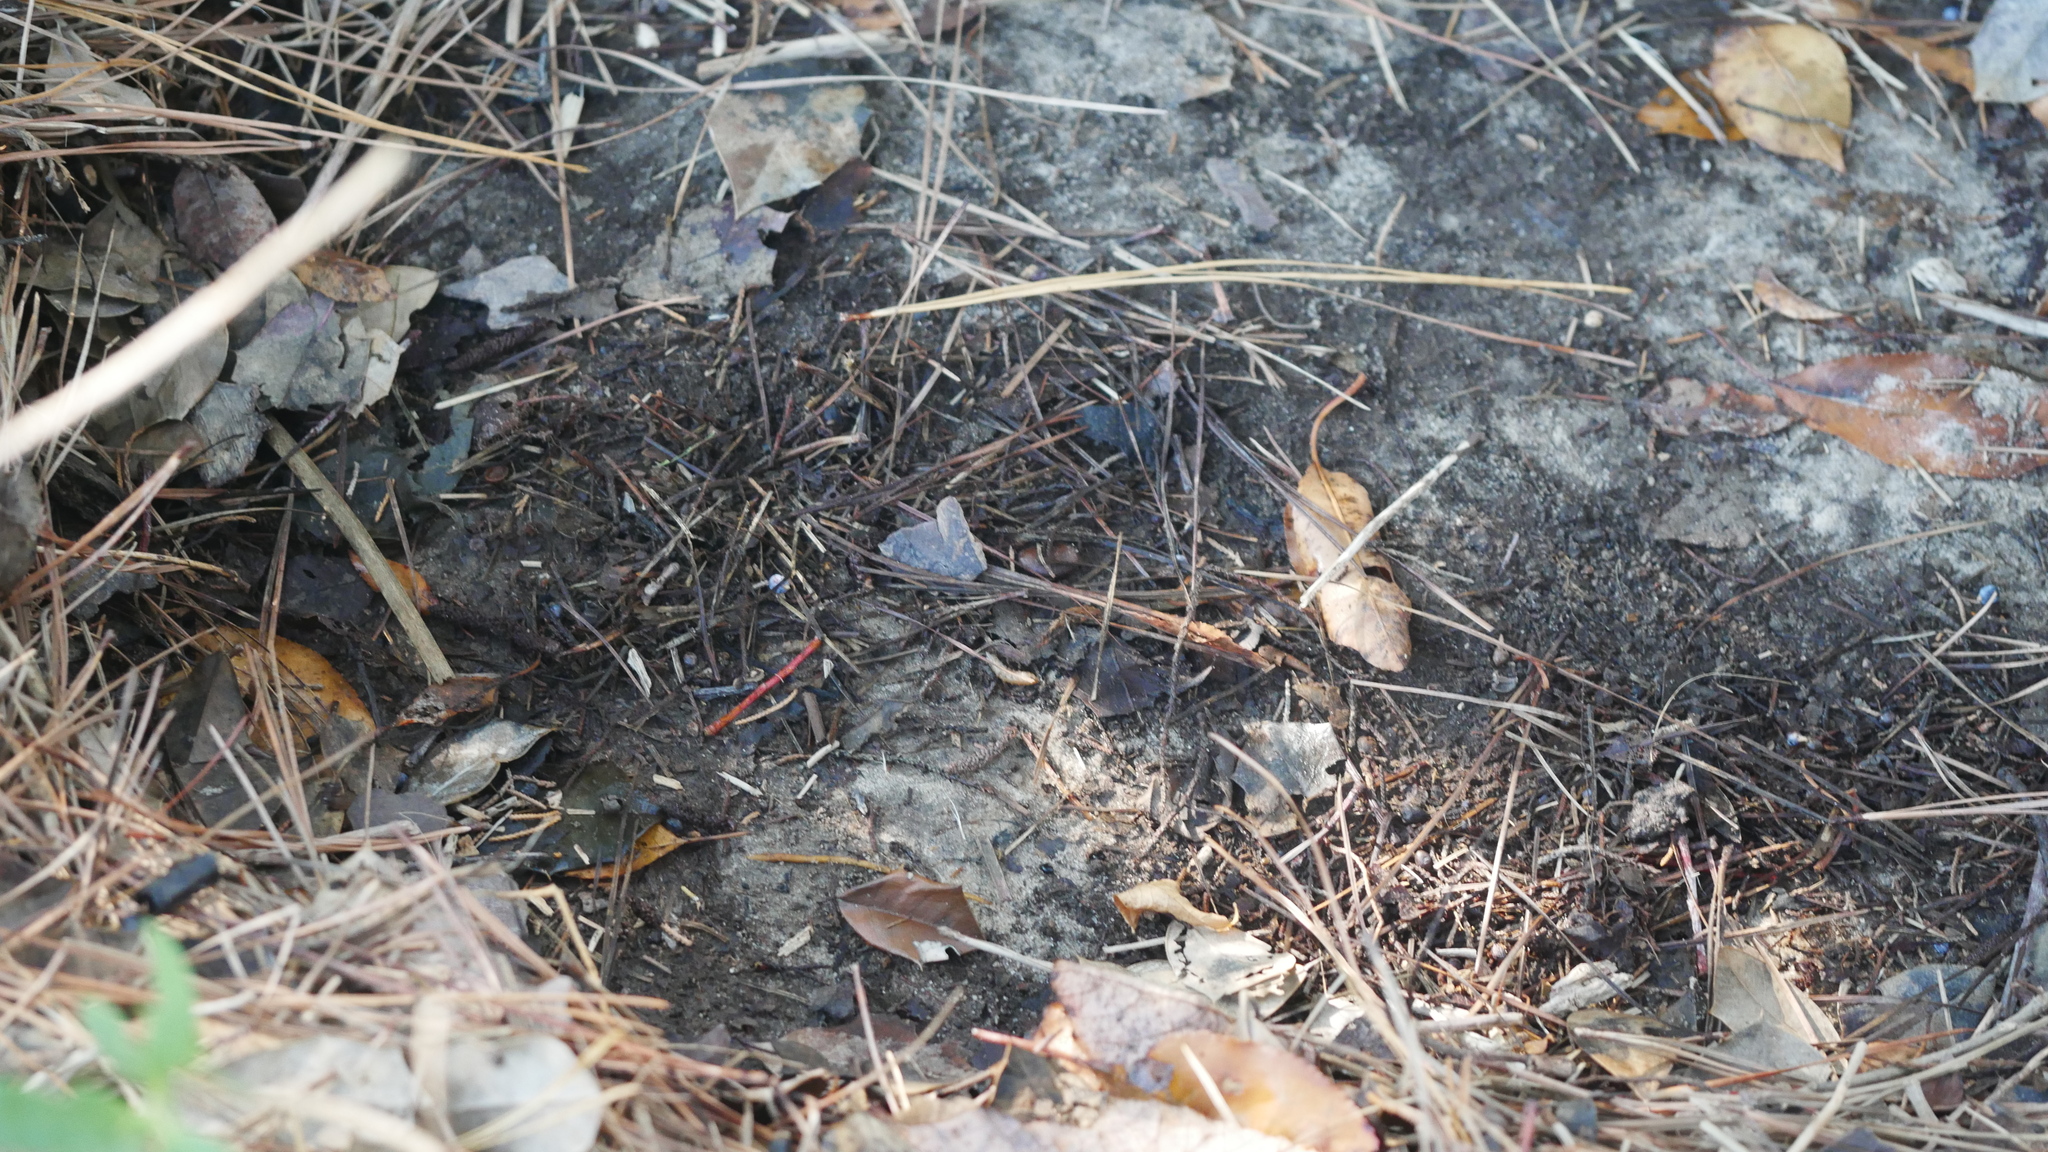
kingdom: Animalia
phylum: Arthropoda
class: Malacostraca
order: Isopoda
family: Detonidae
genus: Armadilloniscus
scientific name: Armadilloniscus ellipticus
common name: Pillbug
